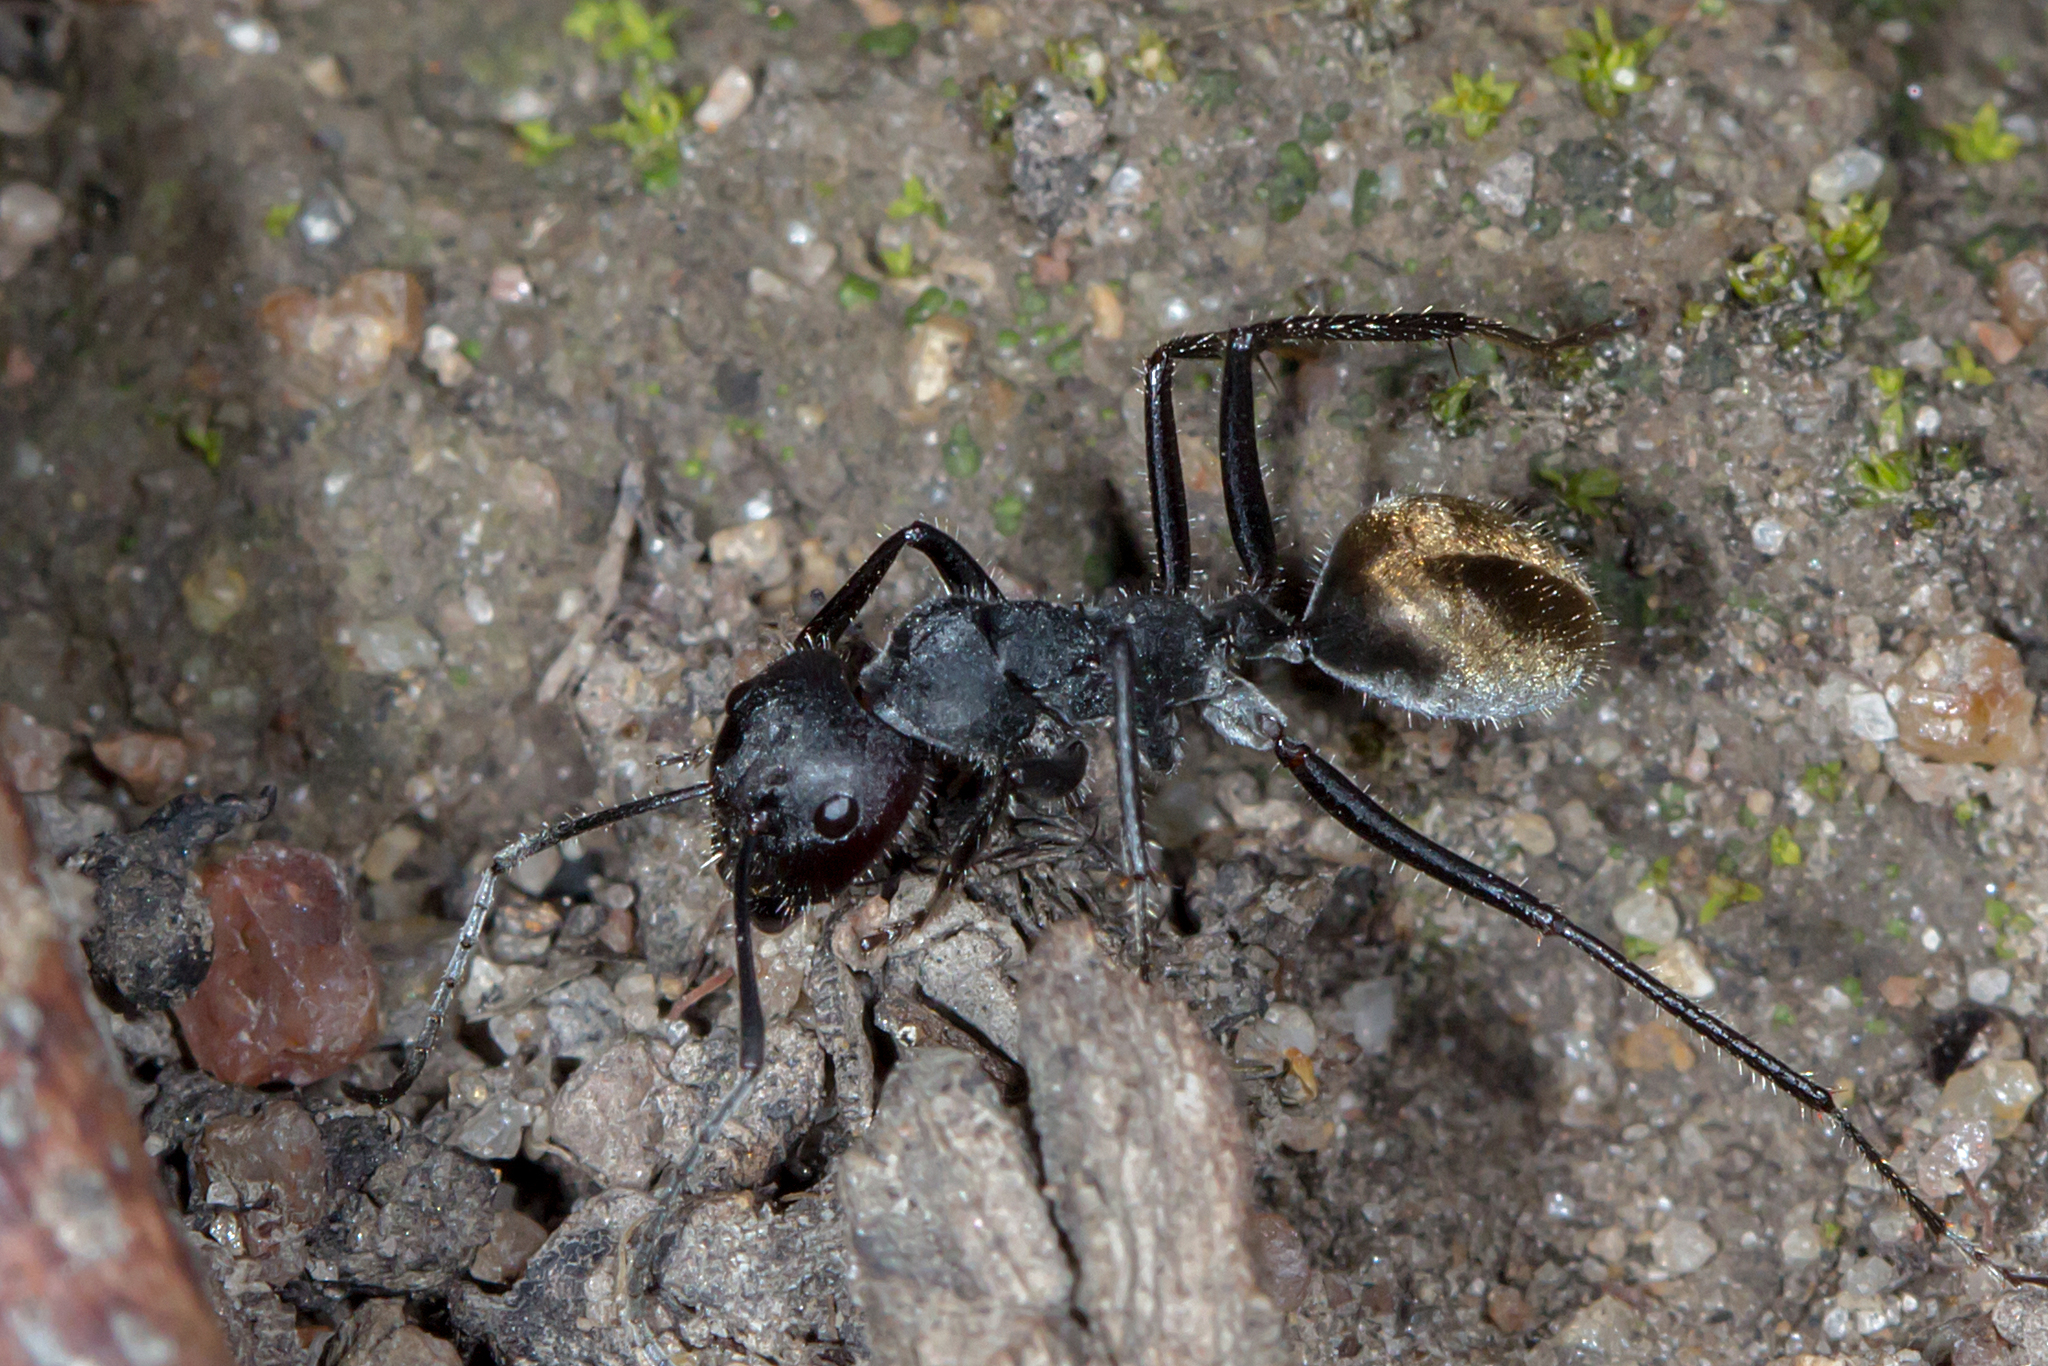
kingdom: Animalia
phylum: Arthropoda
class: Insecta
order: Hymenoptera
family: Formicidae
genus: Camponotus
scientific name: Camponotus suffusus
